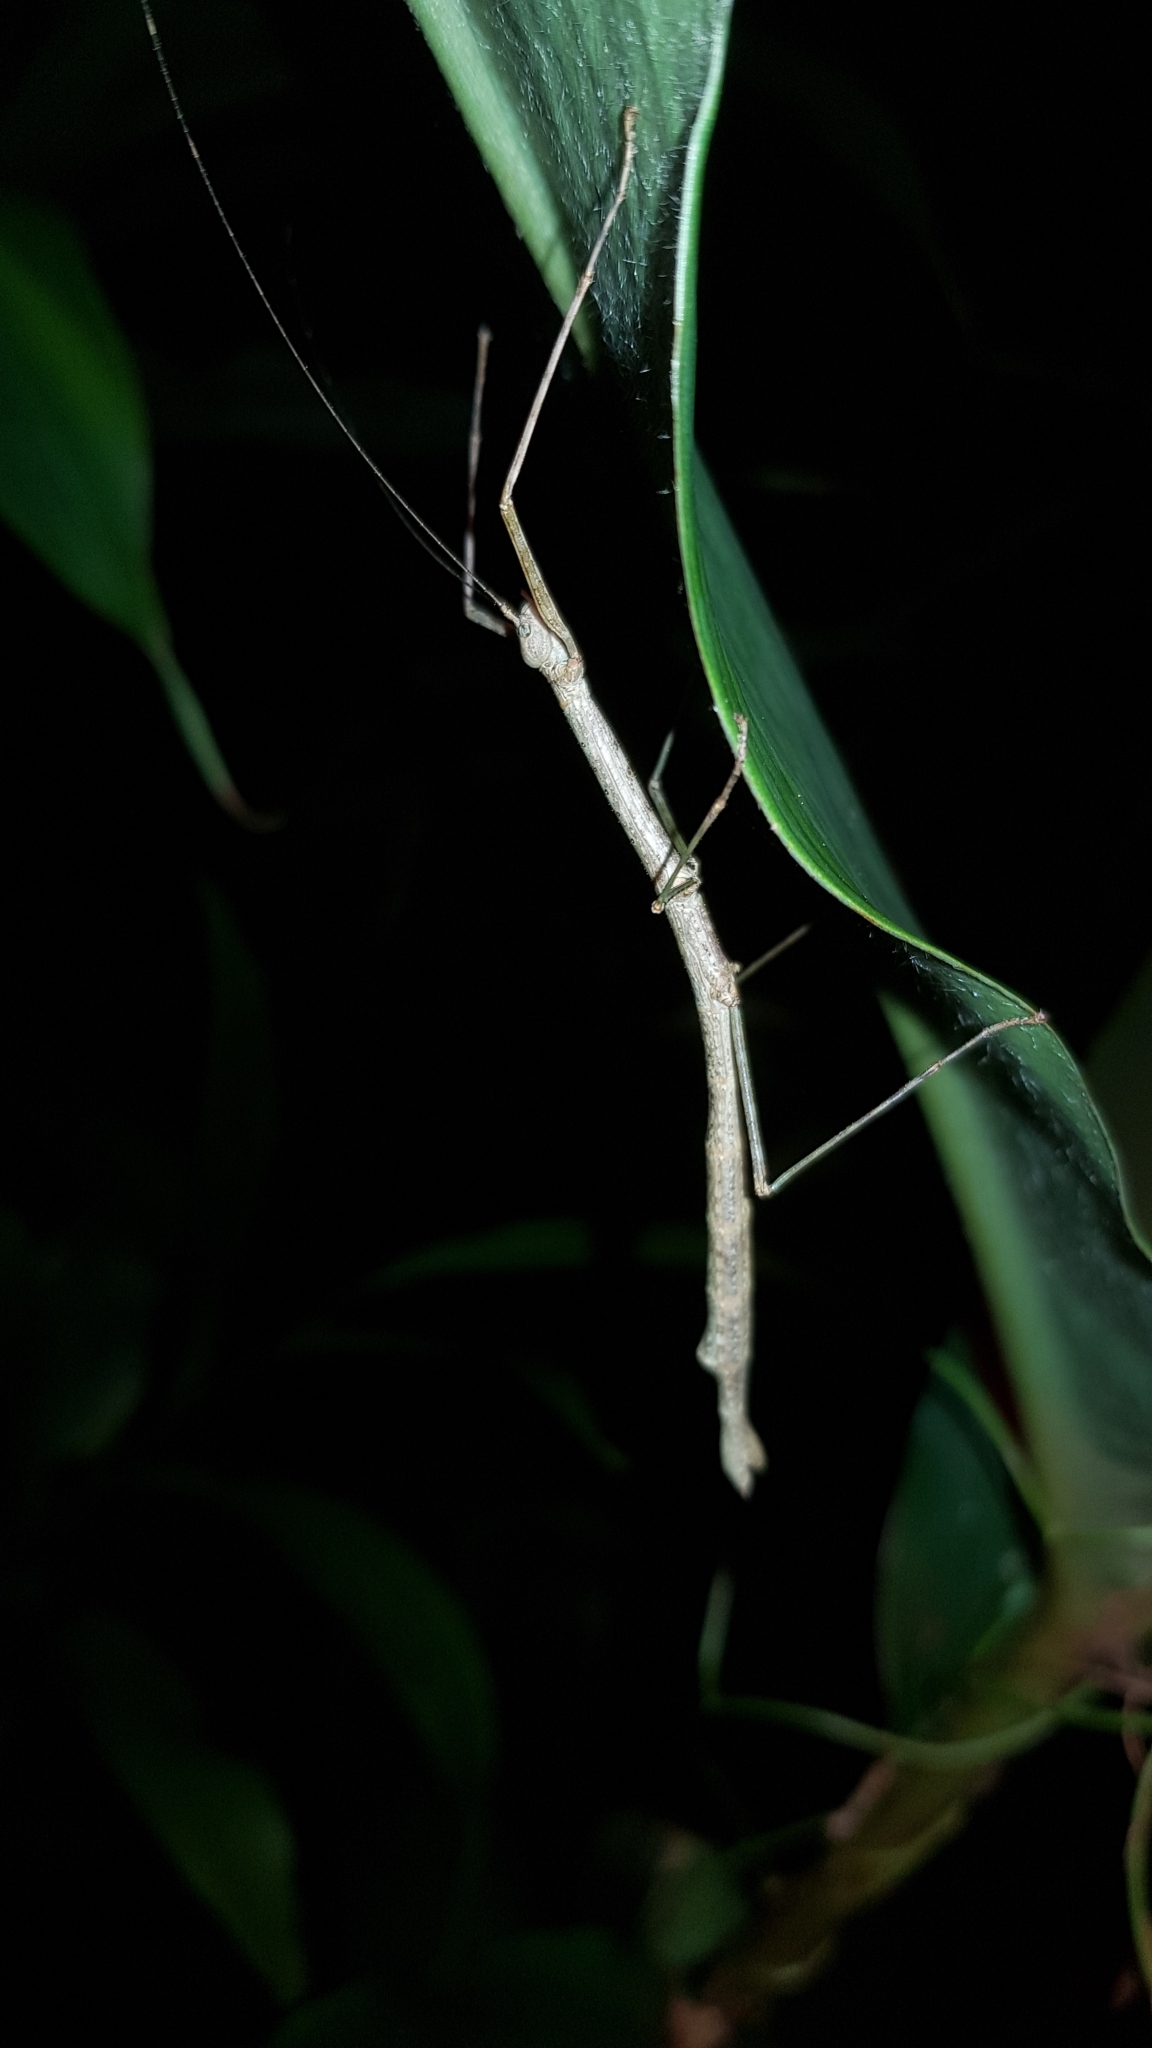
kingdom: Animalia
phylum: Arthropoda
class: Insecta
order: Phasmida
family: Lonchodidae
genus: Candovia
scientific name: Candovia strumosa
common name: Richmond river stick-insect
